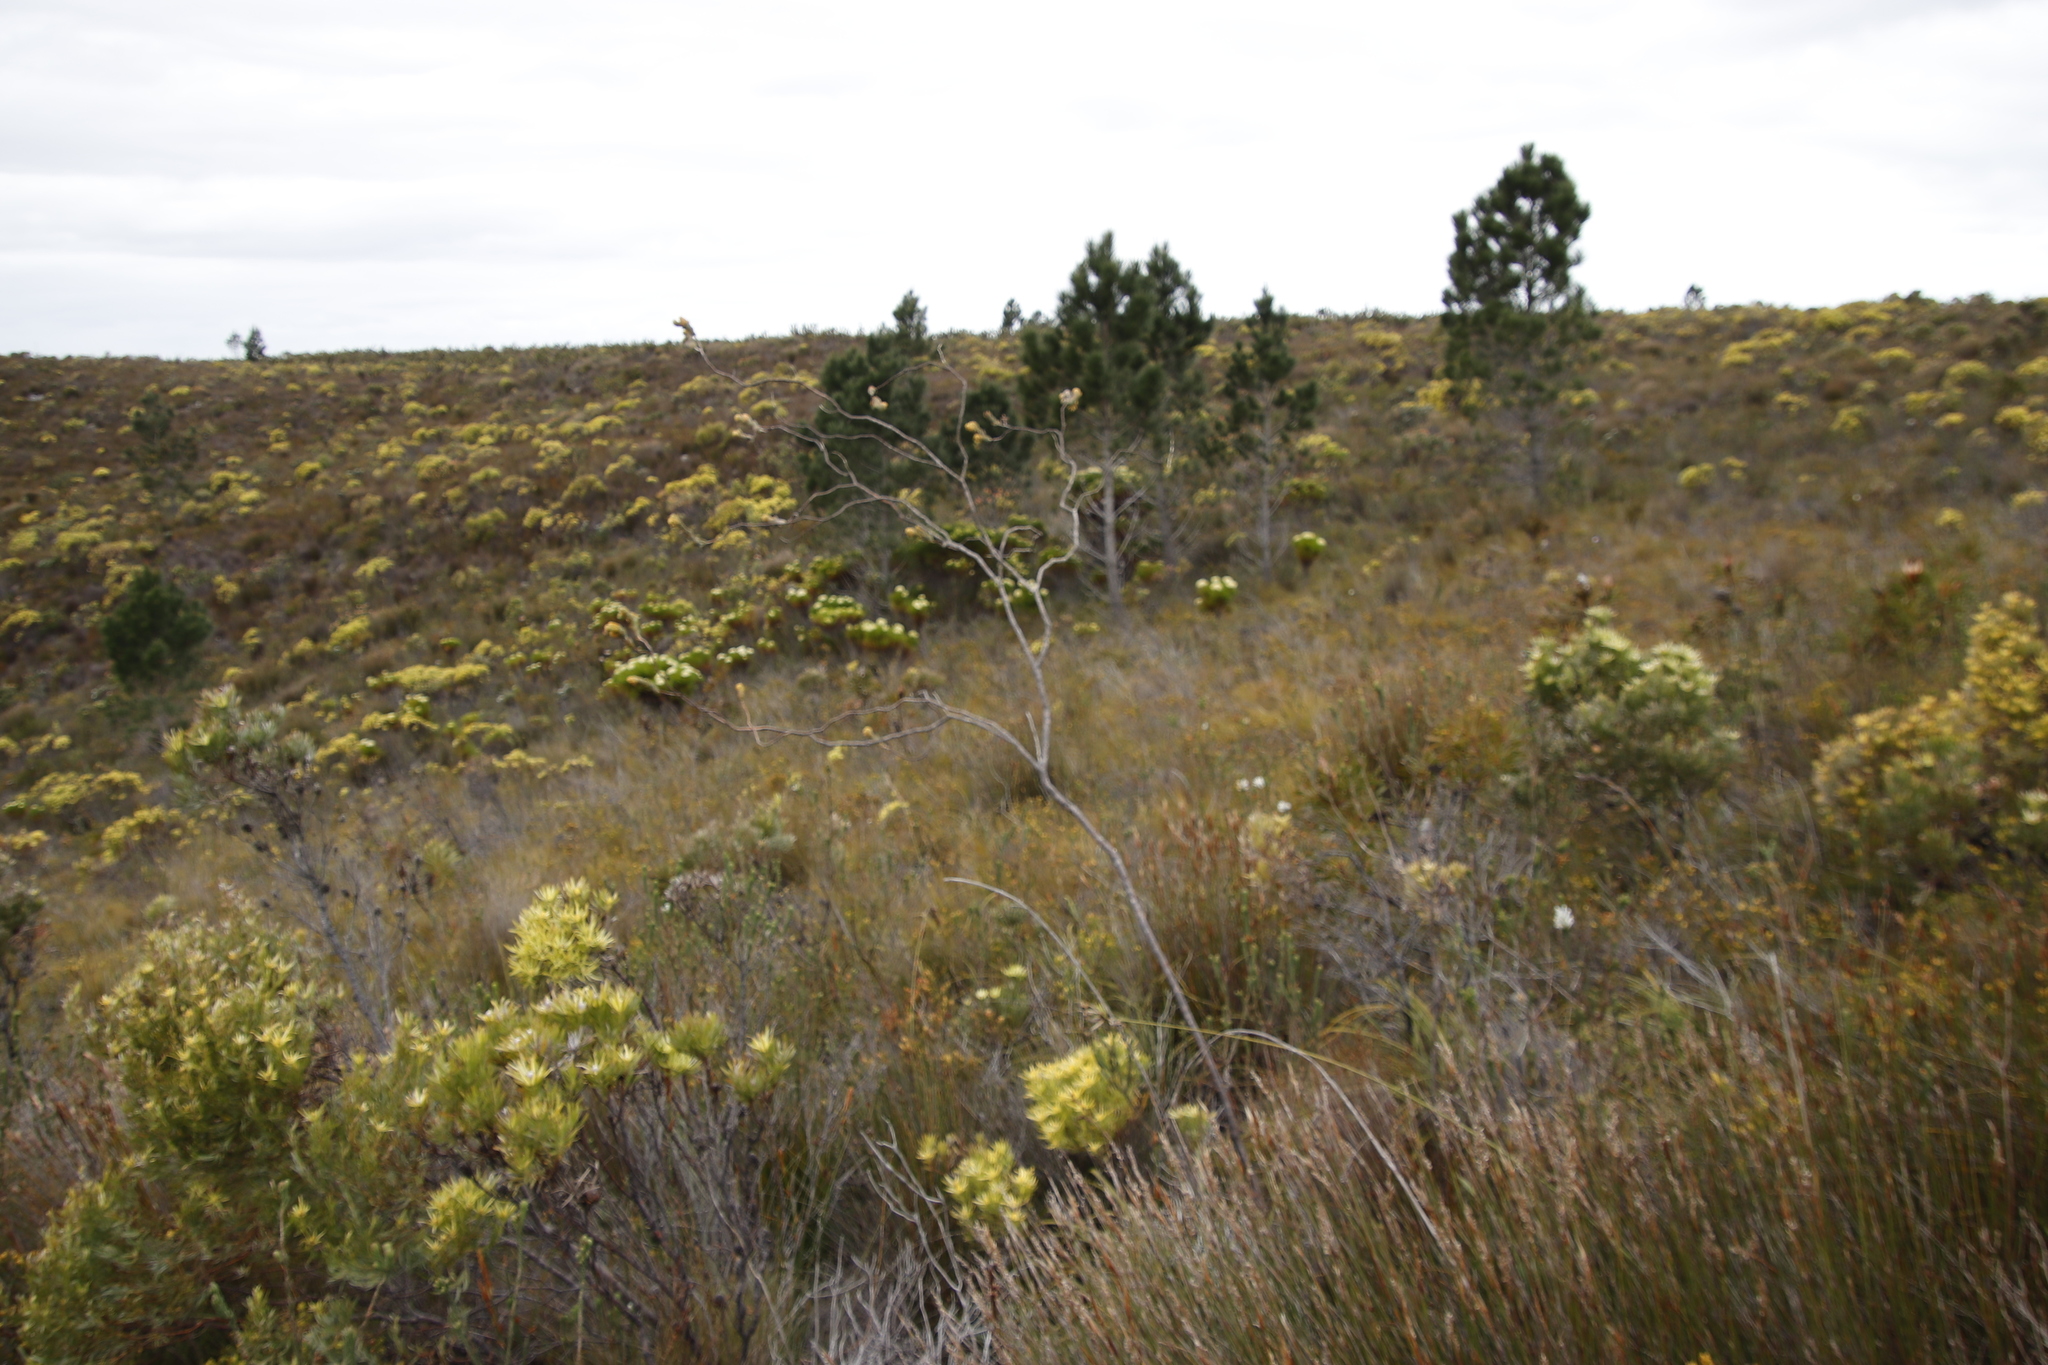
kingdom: Plantae
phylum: Tracheophyta
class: Magnoliopsida
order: Santalales
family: Thesiaceae
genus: Thesium
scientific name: Thesium euphorbioides
